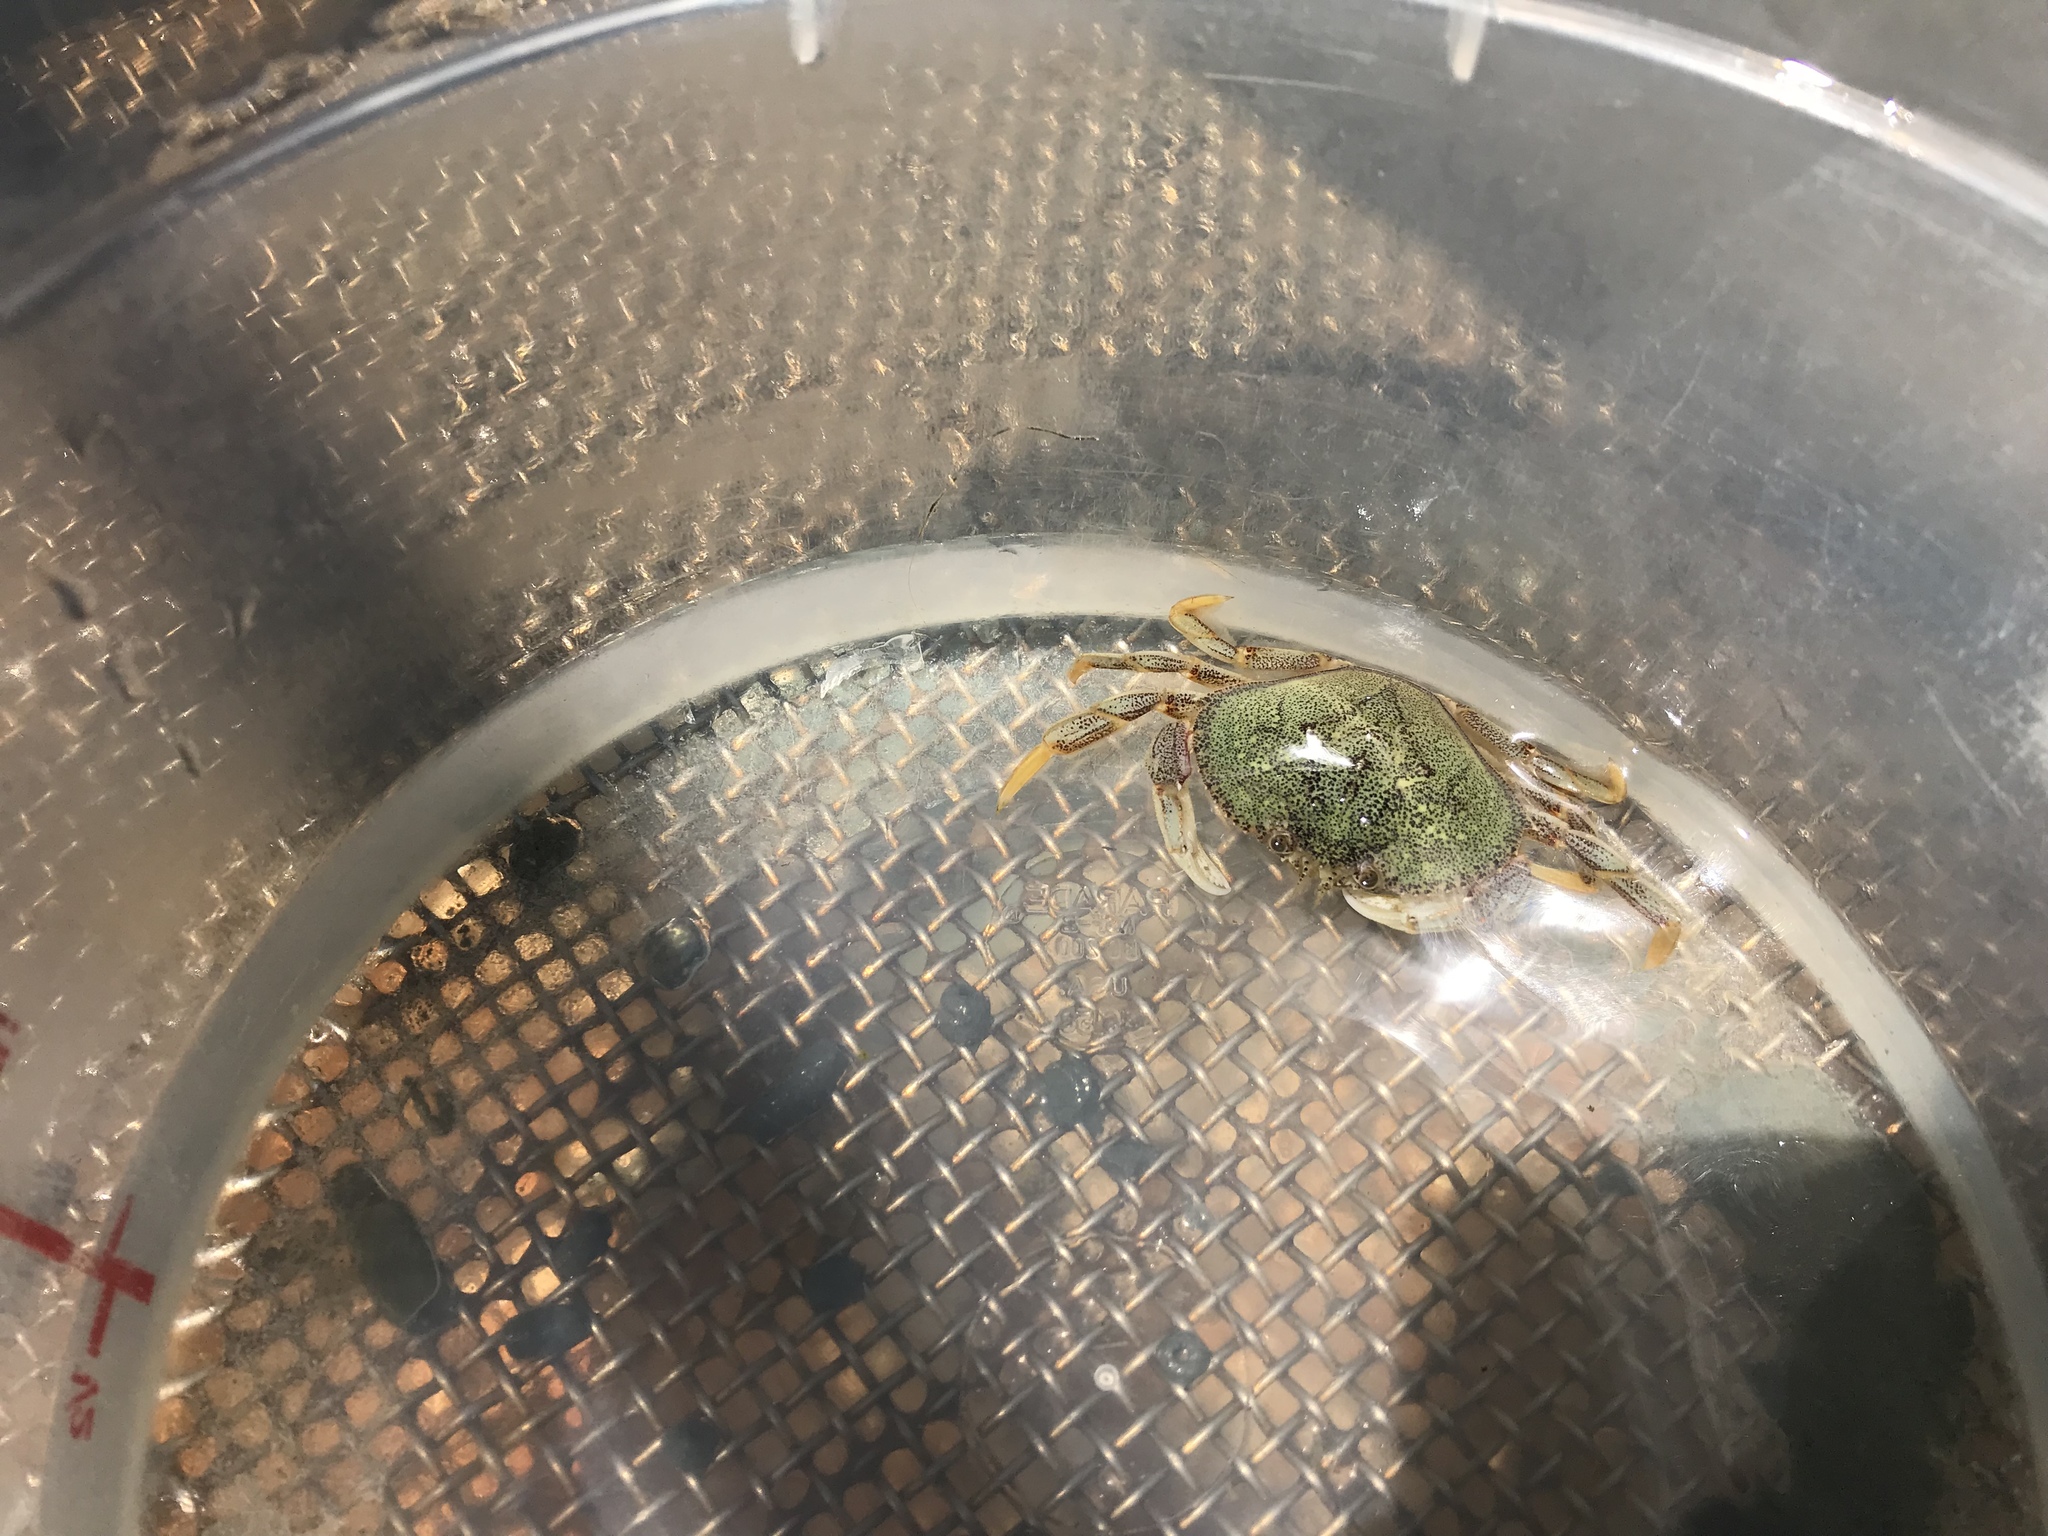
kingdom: Animalia
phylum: Arthropoda
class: Malacostraca
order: Decapoda
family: Cancridae
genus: Metacarcinus
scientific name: Metacarcinus magister
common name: Californian crab
